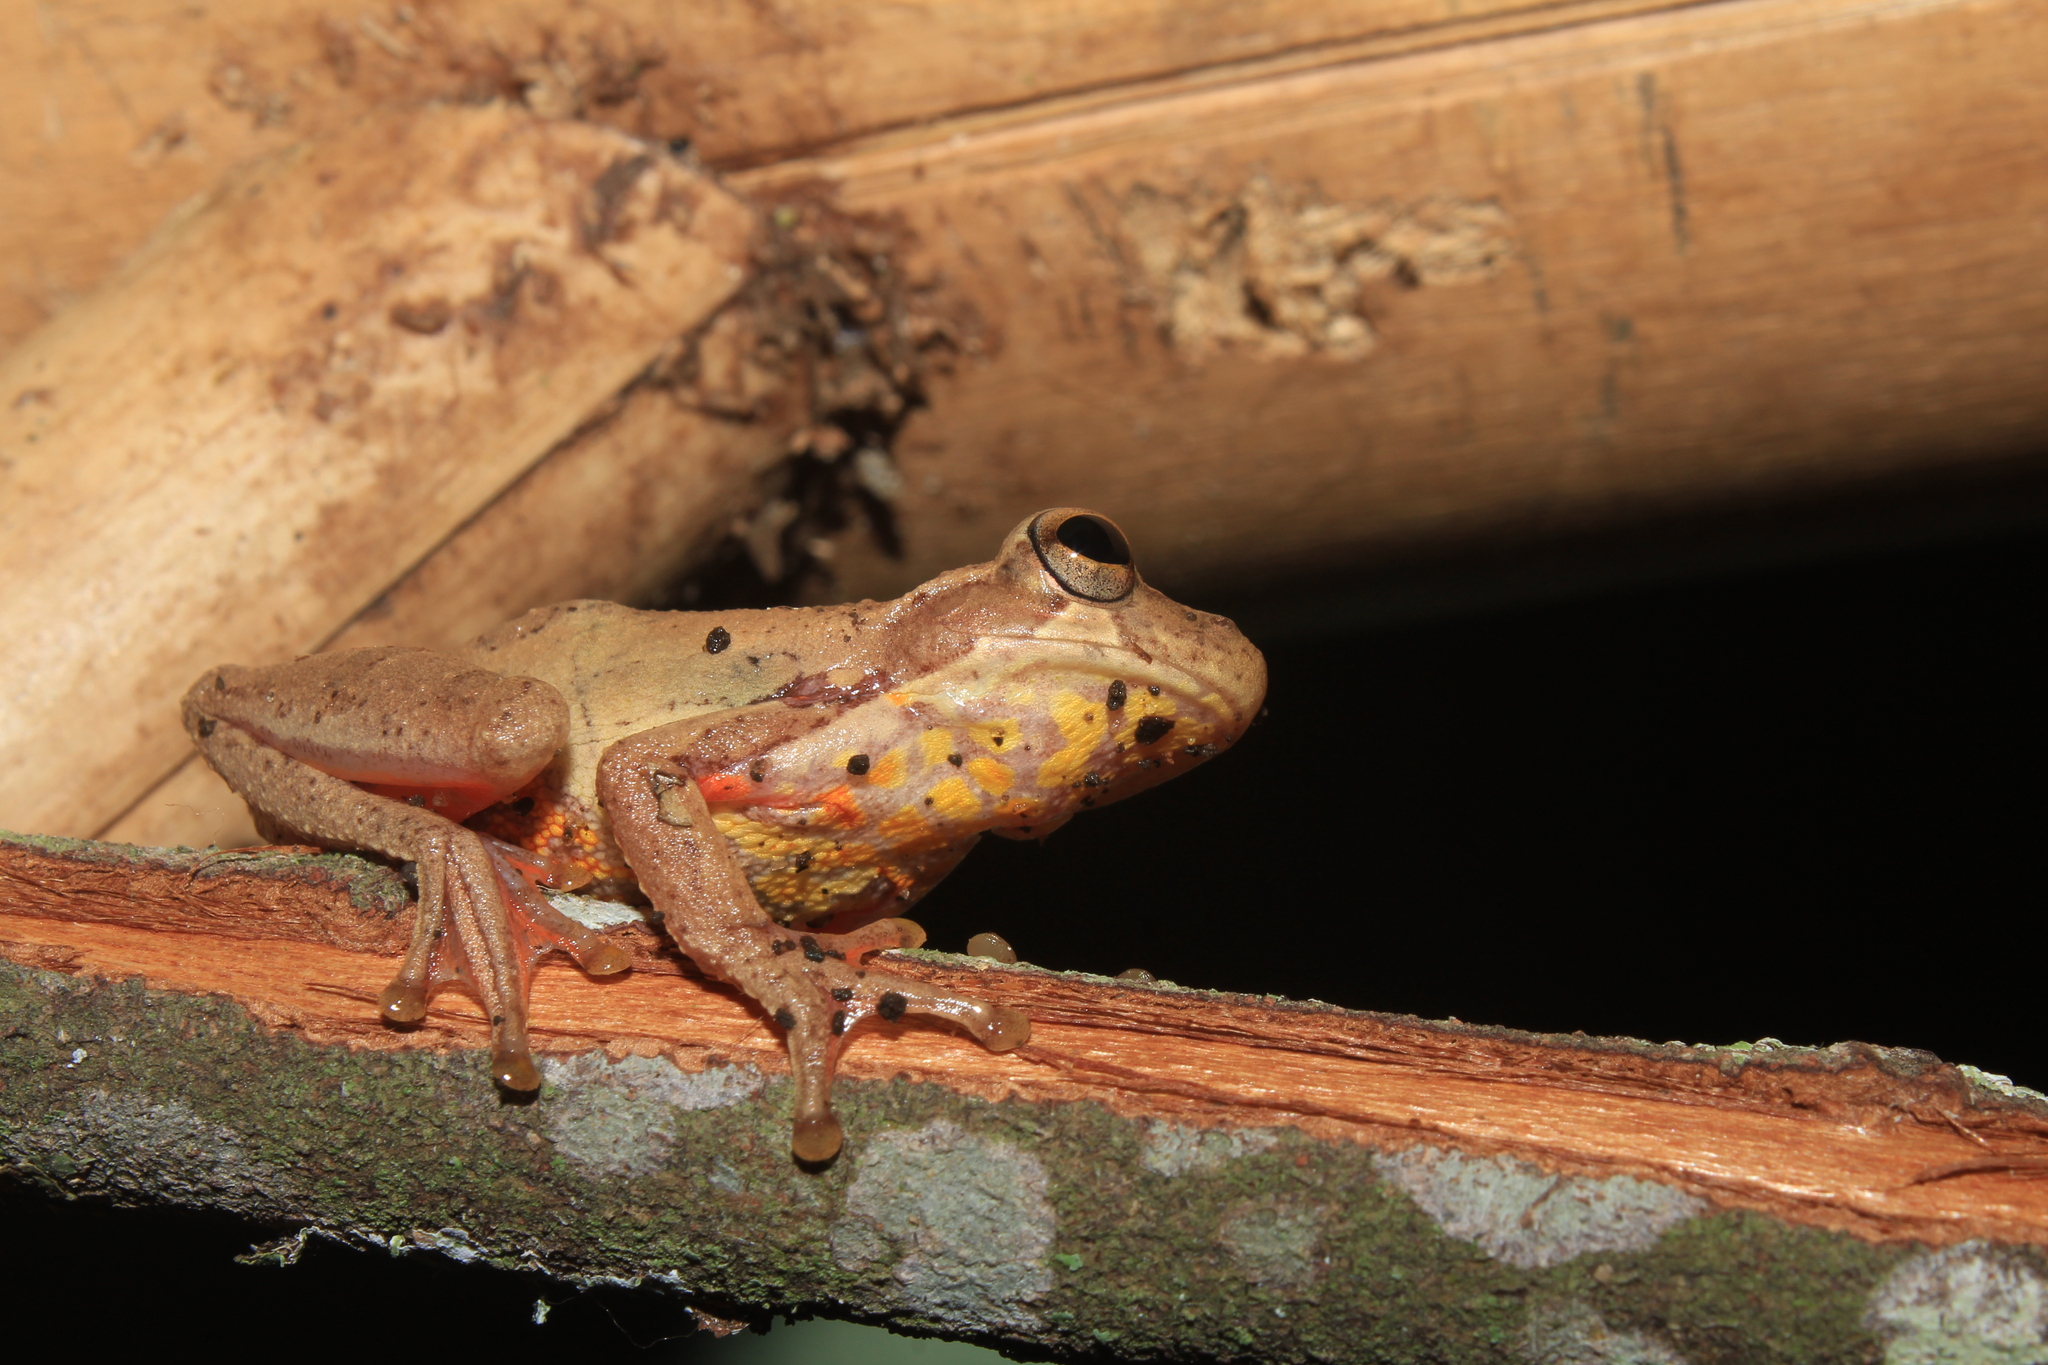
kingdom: Animalia
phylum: Chordata
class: Amphibia
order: Anura
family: Hylidae
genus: Dendropsophus
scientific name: Dendropsophus columbianus
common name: Boettger's colombian treefrog
